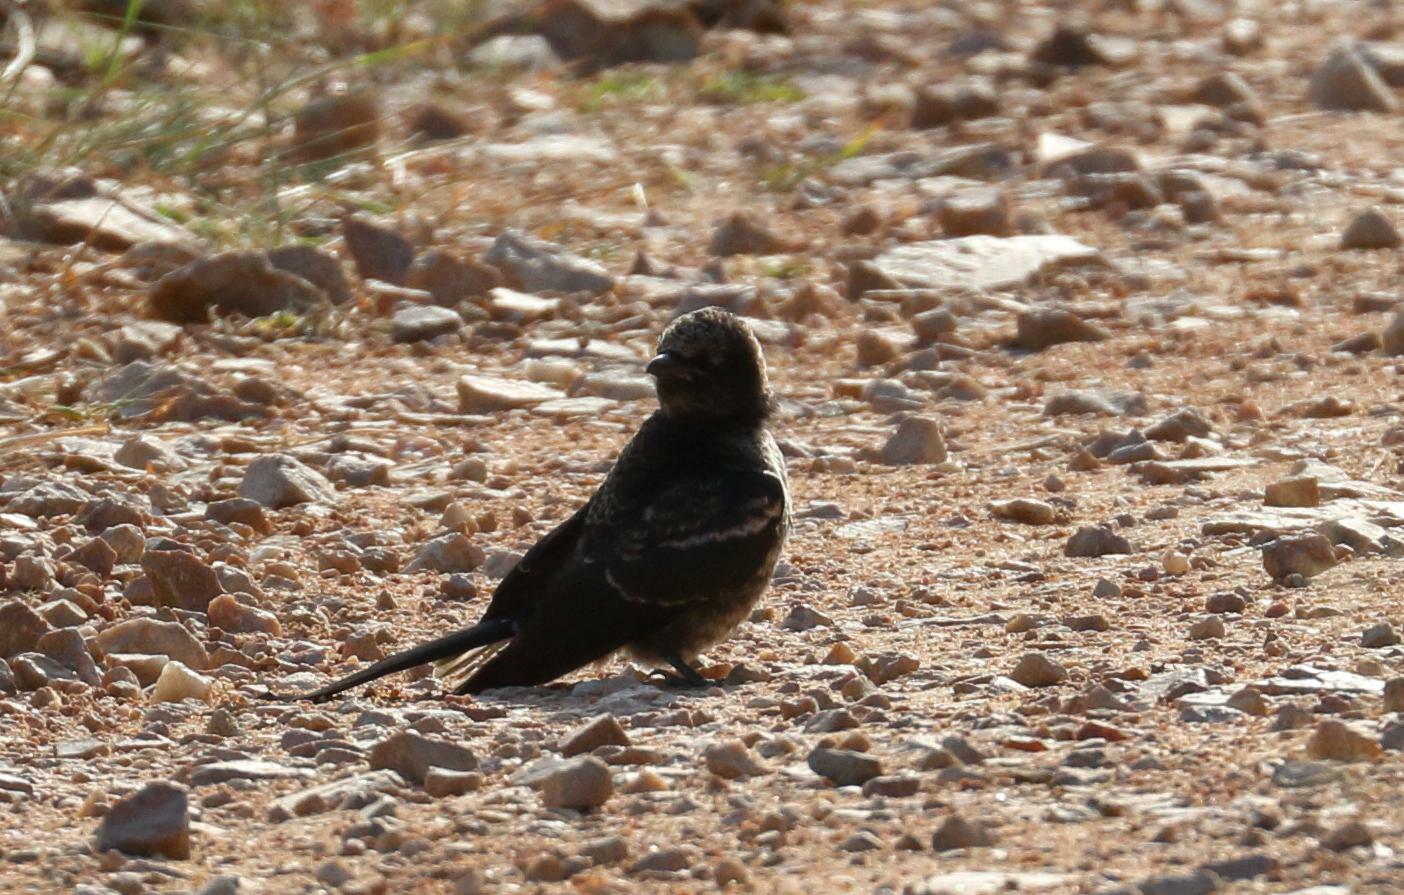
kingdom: Animalia
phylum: Chordata
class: Aves
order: Passeriformes
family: Dicruridae
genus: Dicrurus
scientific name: Dicrurus adsimilis
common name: Fork-tailed drongo
